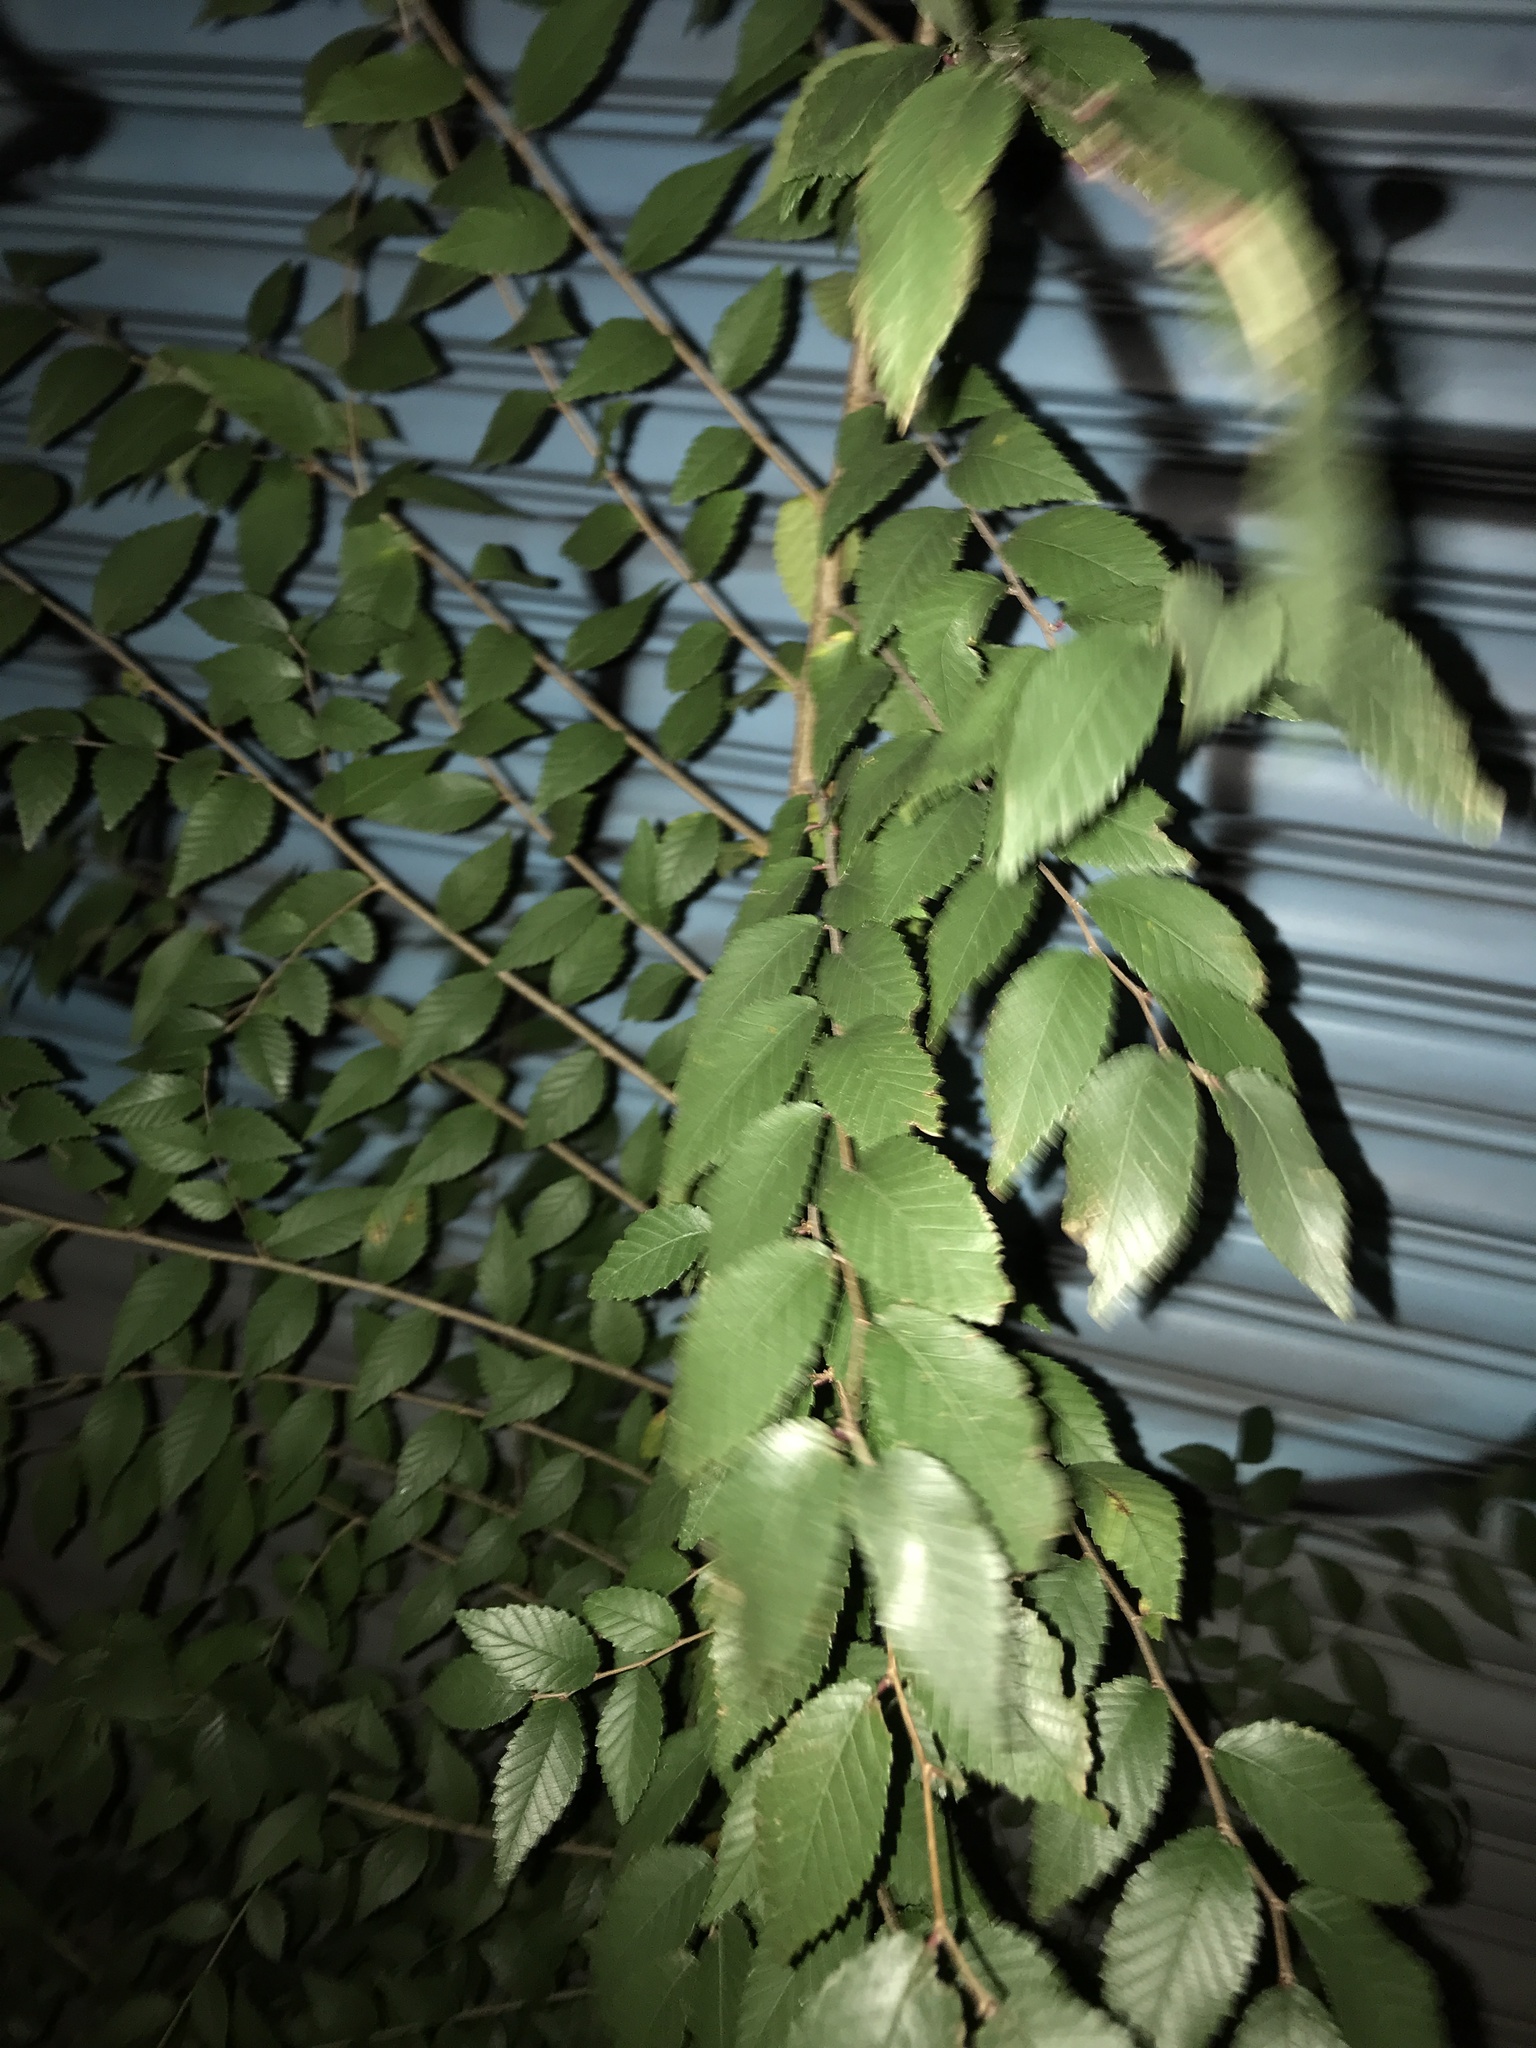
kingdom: Plantae
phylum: Tracheophyta
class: Magnoliopsida
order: Rosales
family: Ulmaceae
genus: Zelkova
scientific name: Zelkova serrata
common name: Japanese zelkova
